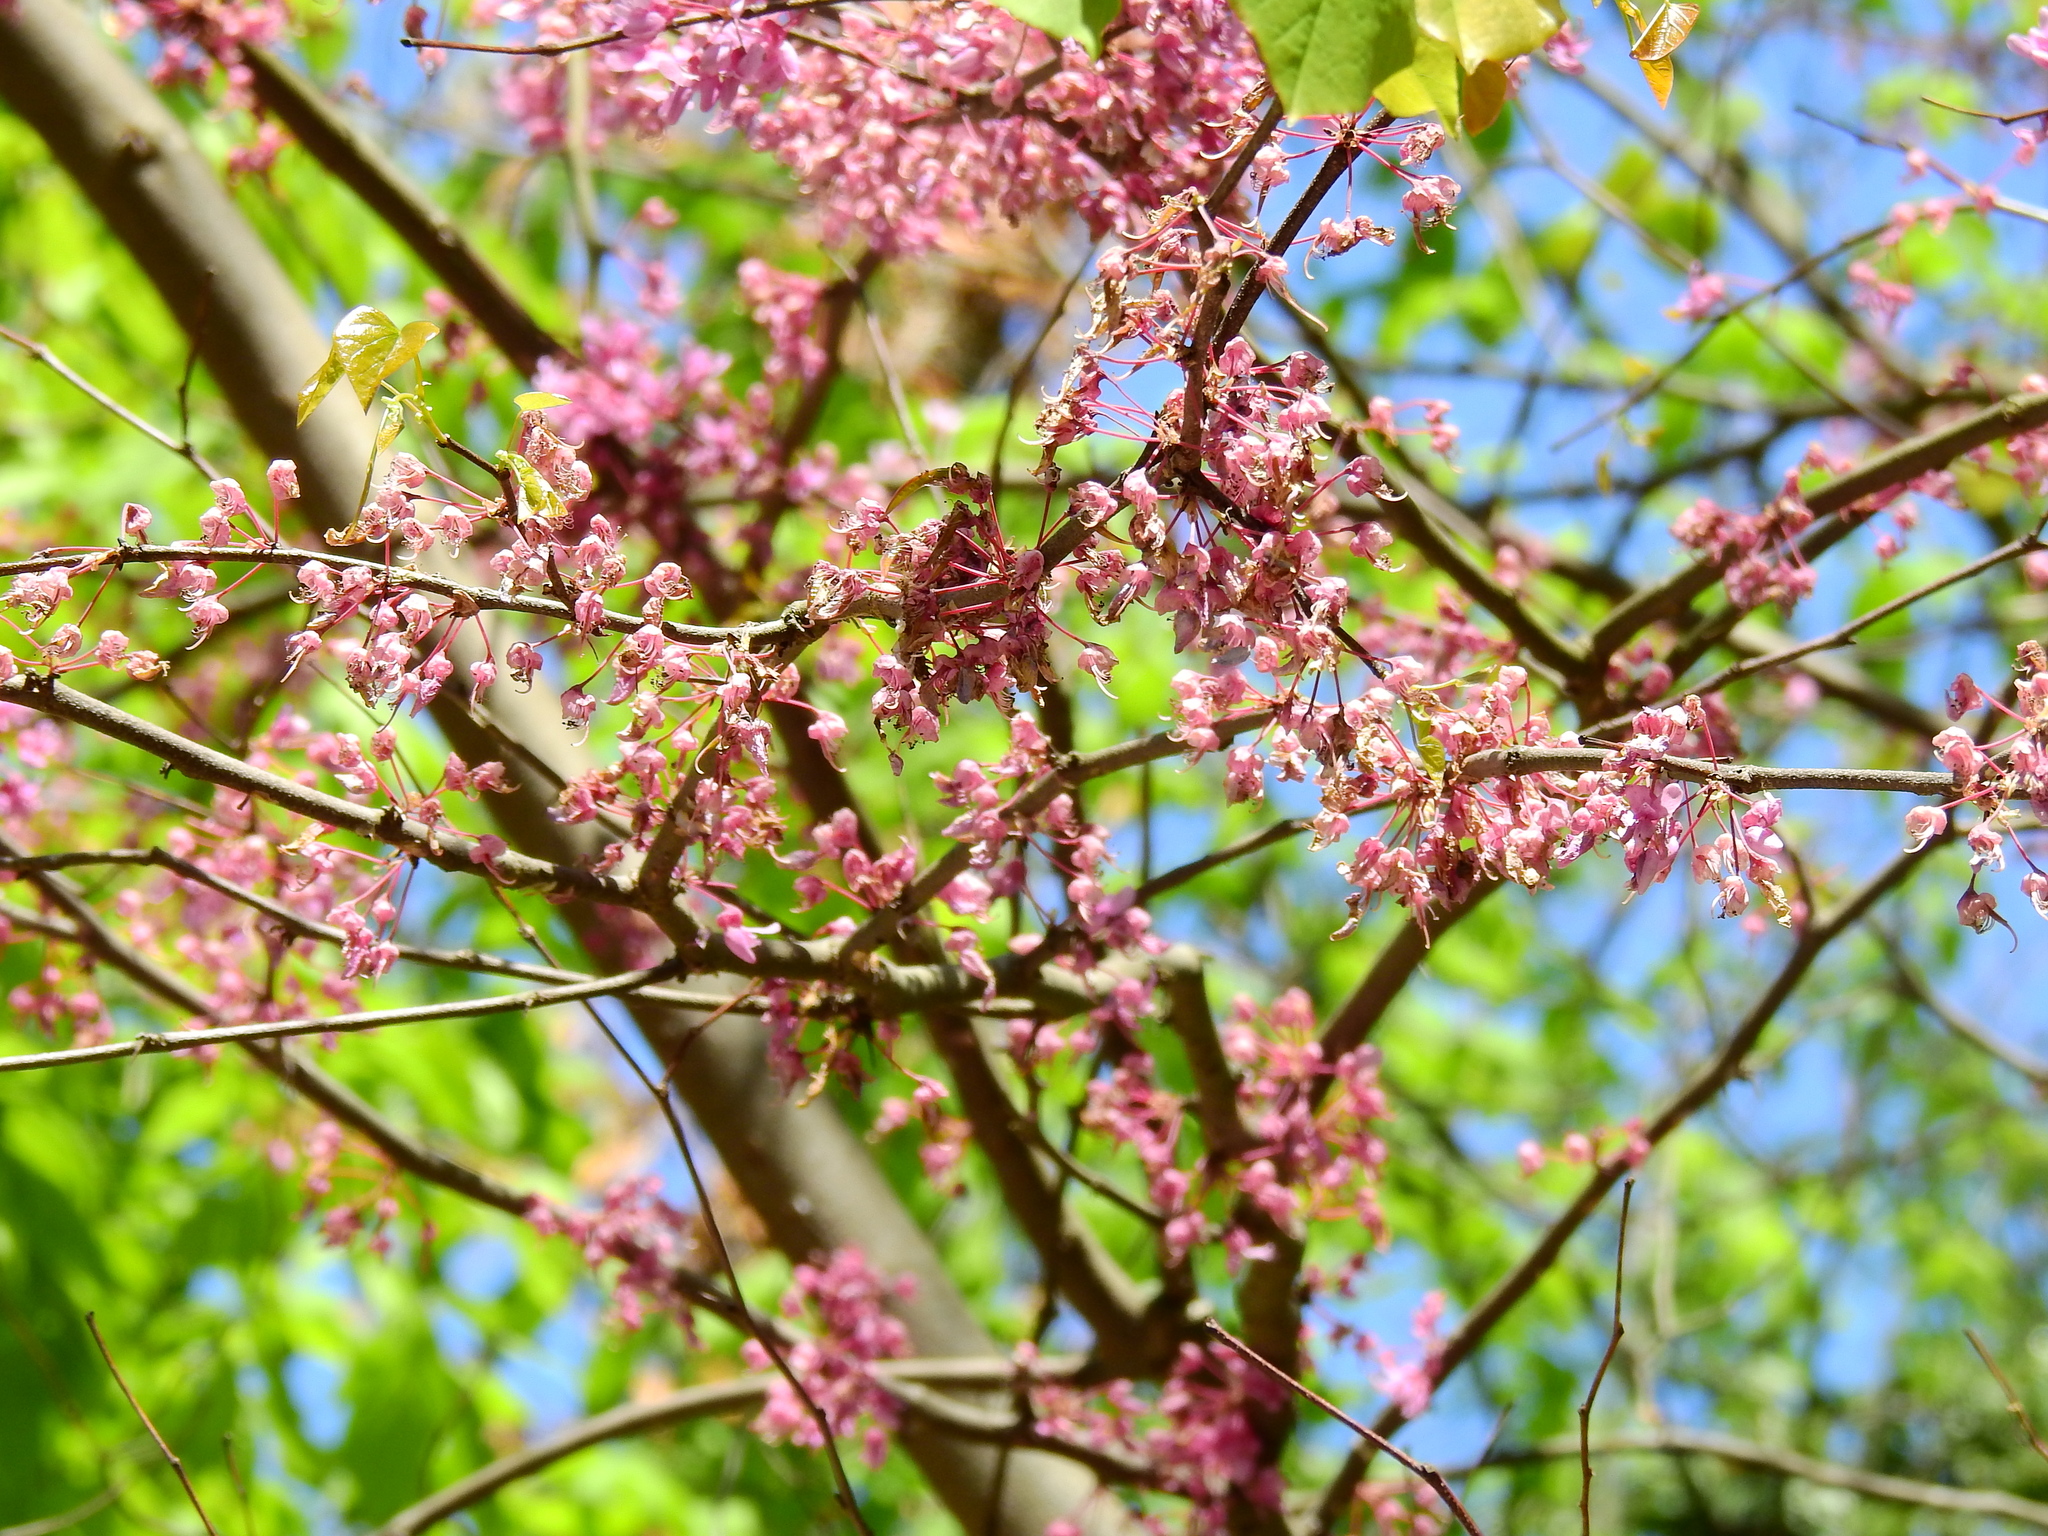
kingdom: Plantae
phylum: Tracheophyta
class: Magnoliopsida
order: Fabales
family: Fabaceae
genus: Cercis
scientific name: Cercis canadensis
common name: Eastern redbud
